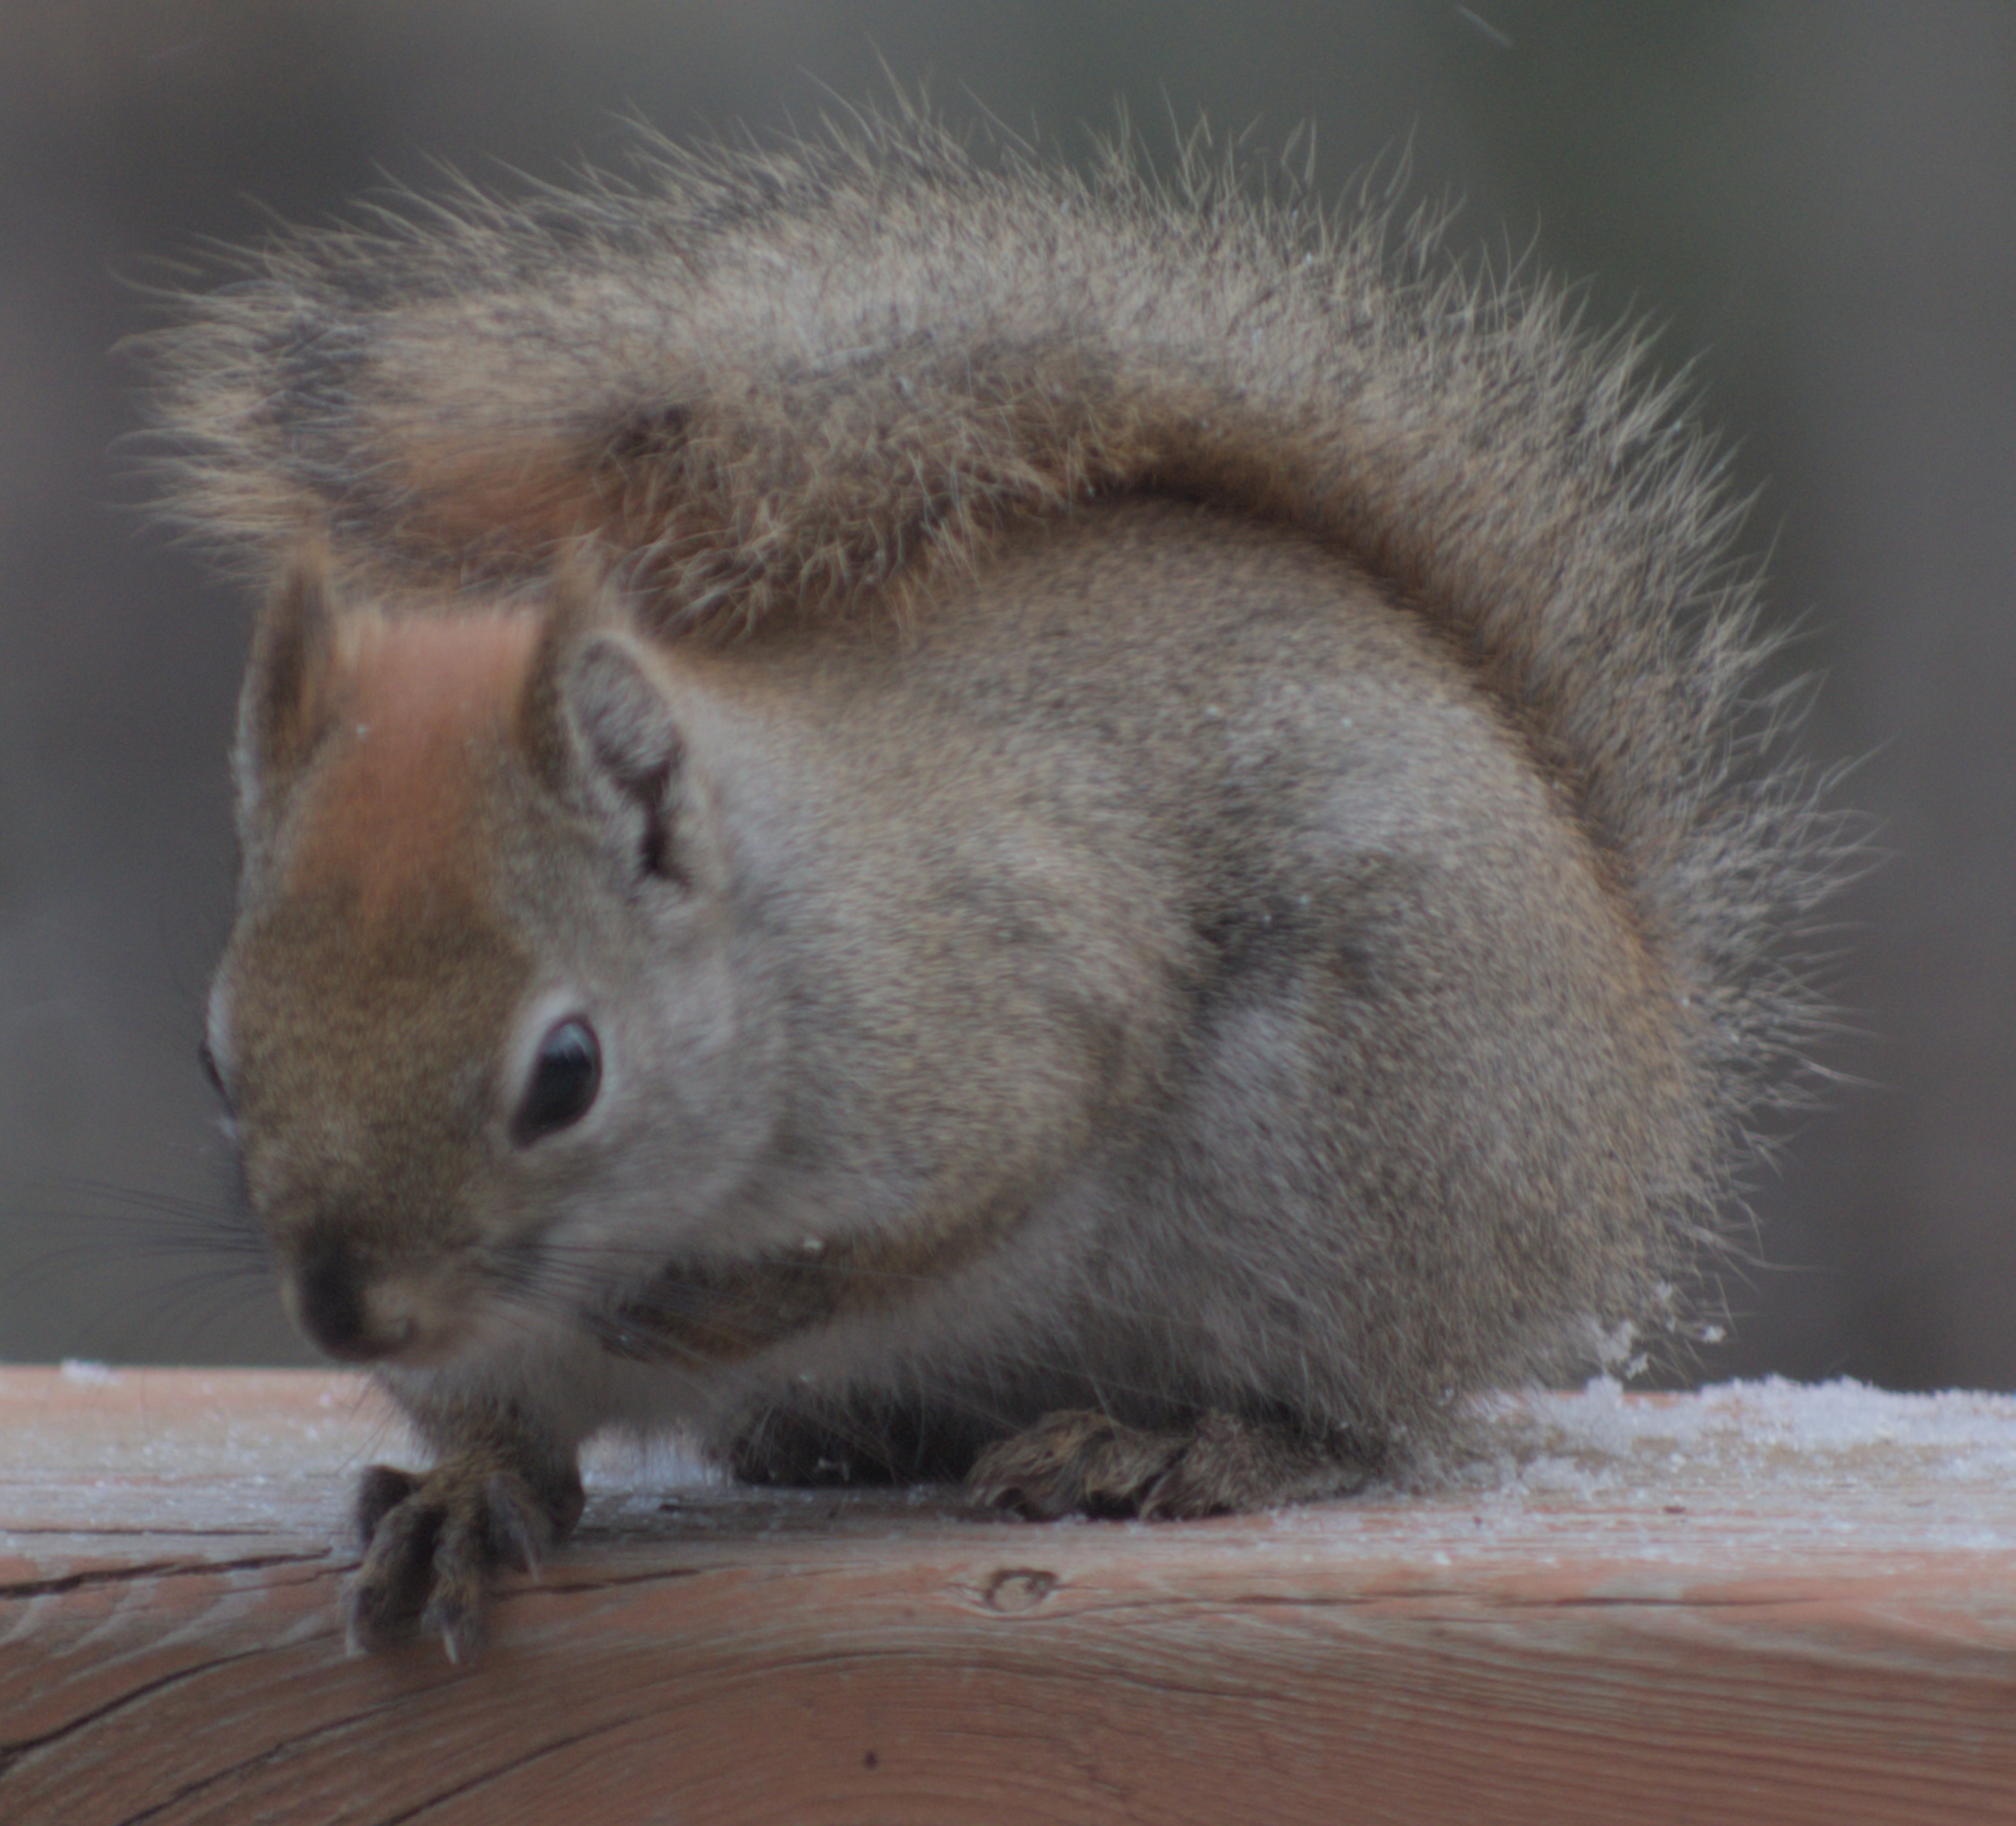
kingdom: Animalia
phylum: Chordata
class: Mammalia
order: Rodentia
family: Sciuridae
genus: Tamiasciurus
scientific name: Tamiasciurus hudsonicus
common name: Red squirrel
